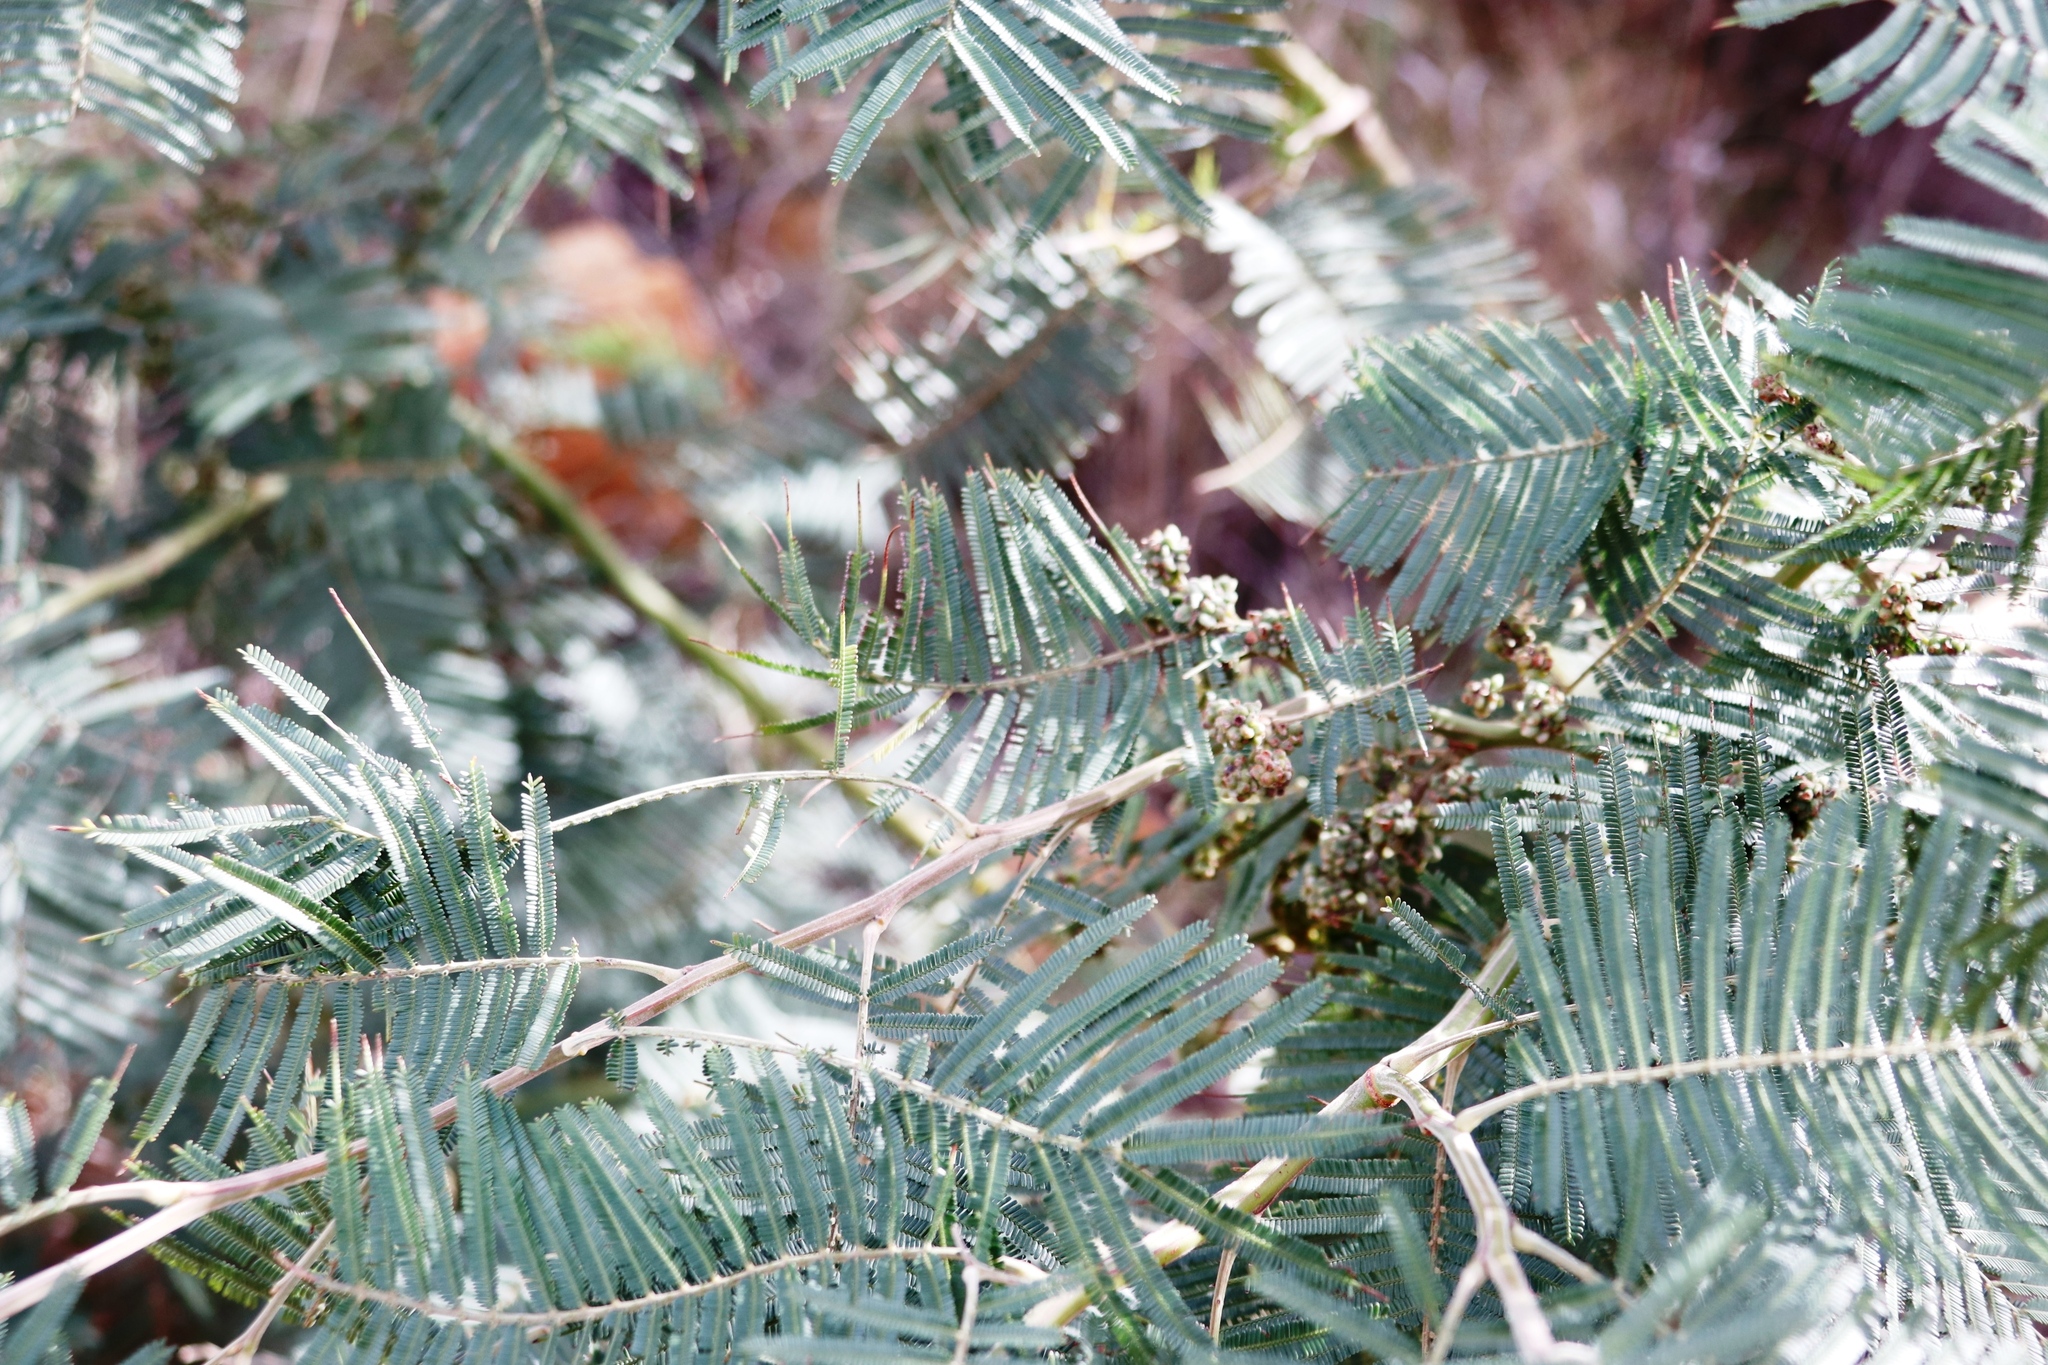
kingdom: Animalia
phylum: Arthropoda
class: Insecta
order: Diptera
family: Cecidomyiidae
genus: Dasineura
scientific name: Dasineura rubiformis
